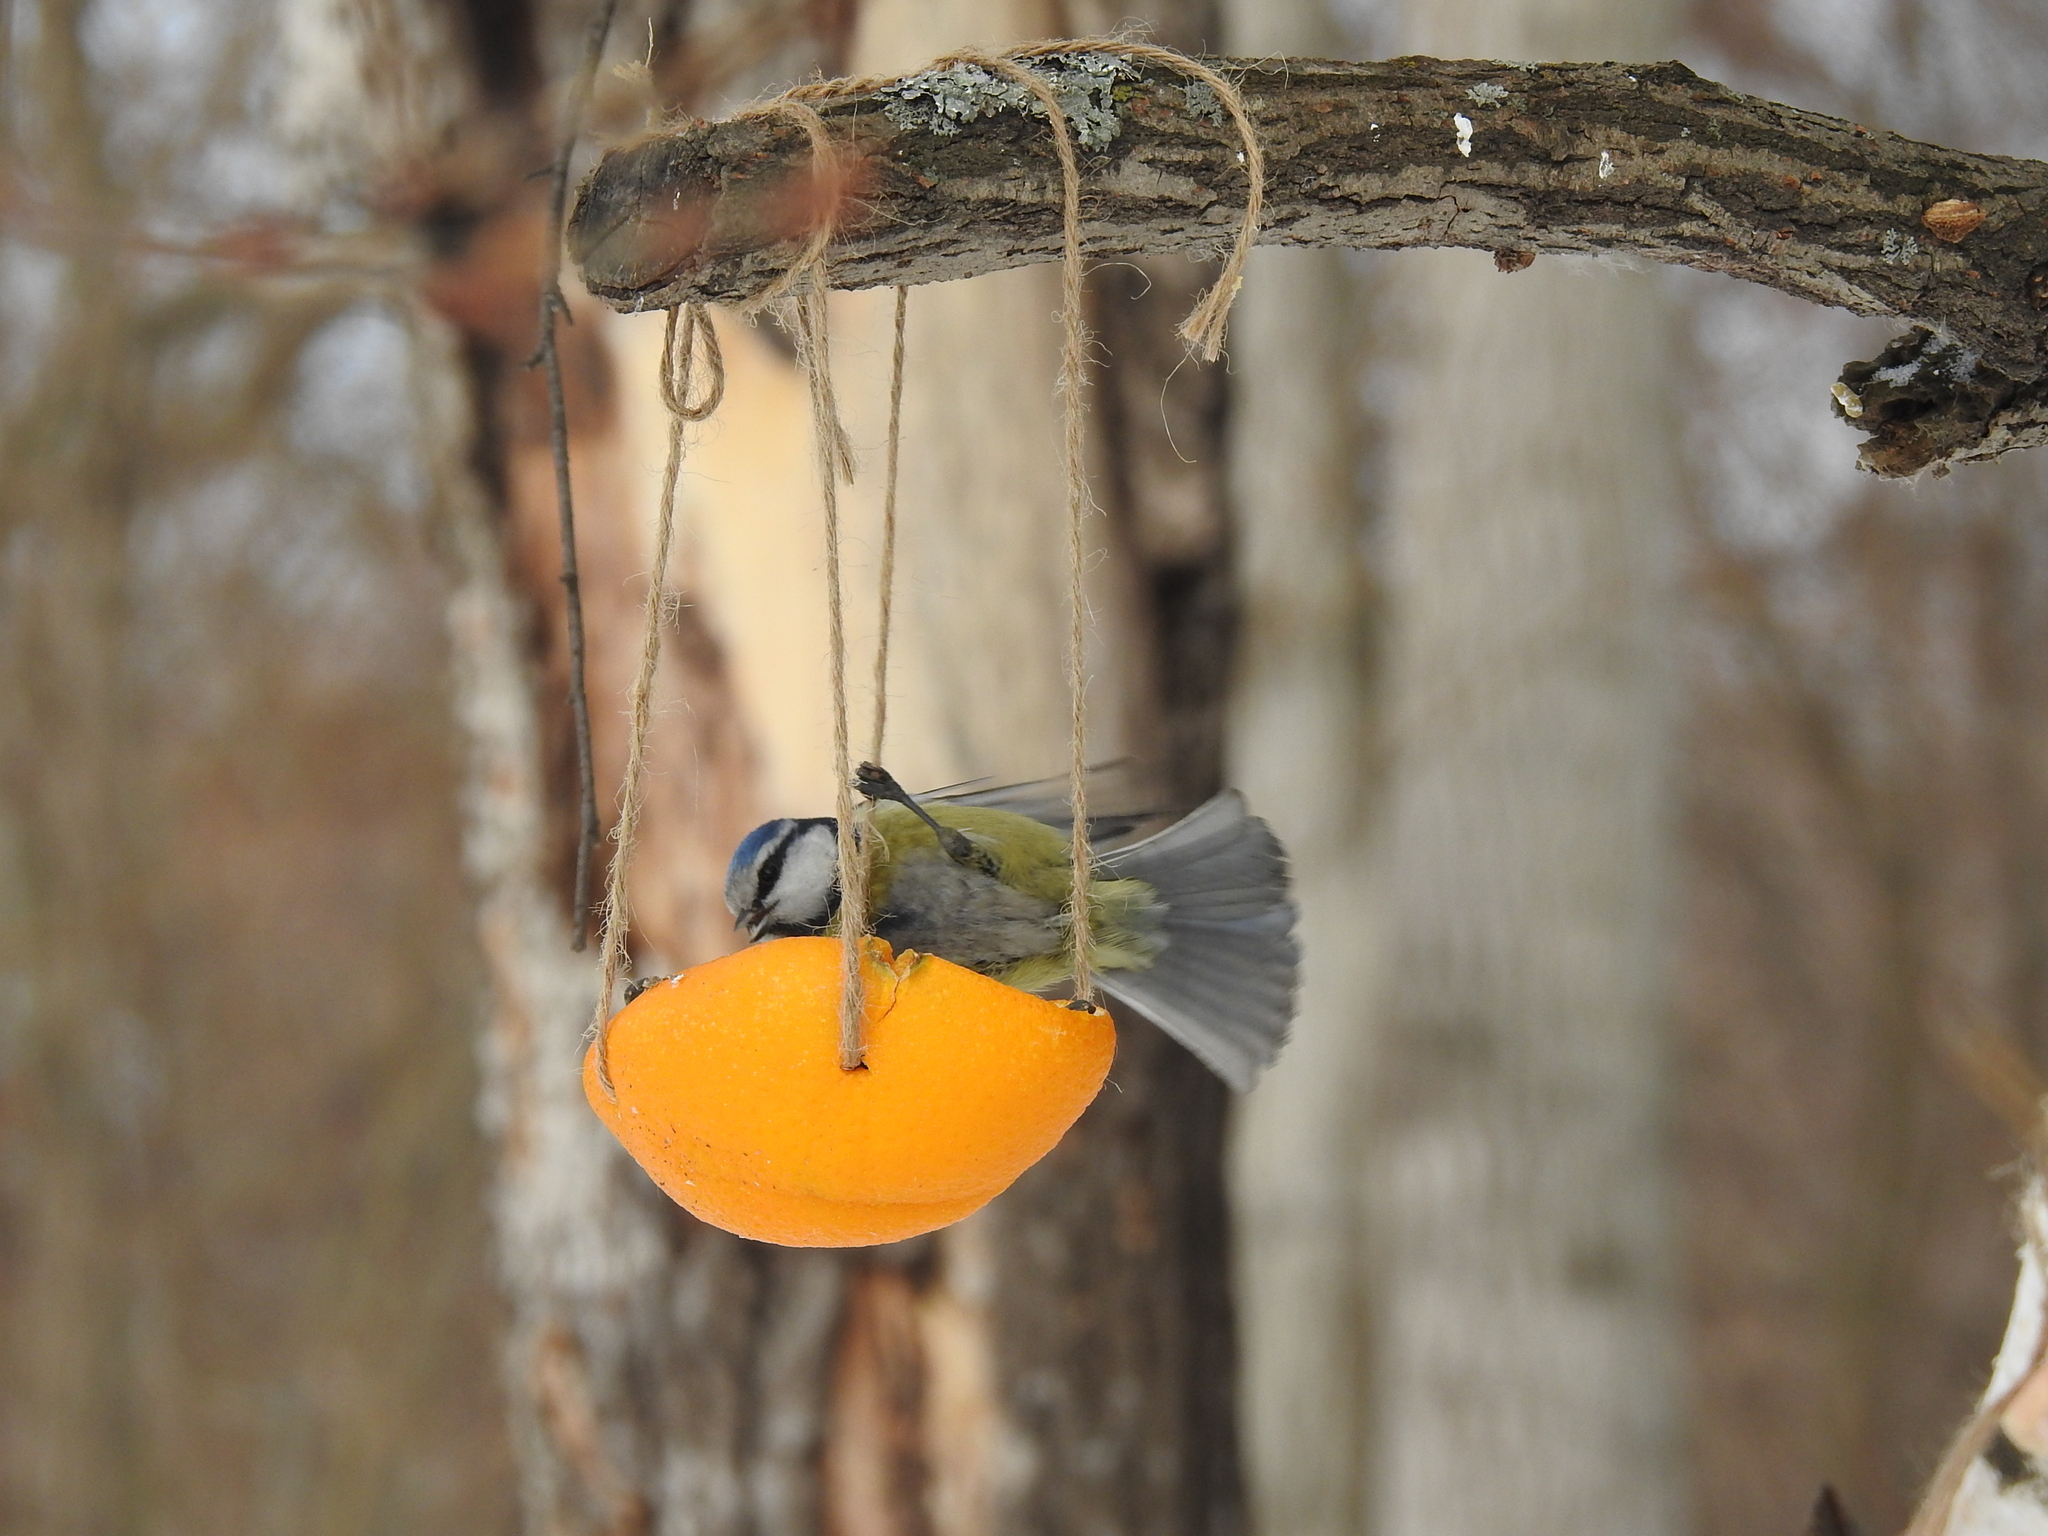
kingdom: Animalia
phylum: Chordata
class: Aves
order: Passeriformes
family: Paridae
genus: Cyanistes
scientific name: Cyanistes caeruleus
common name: Eurasian blue tit
